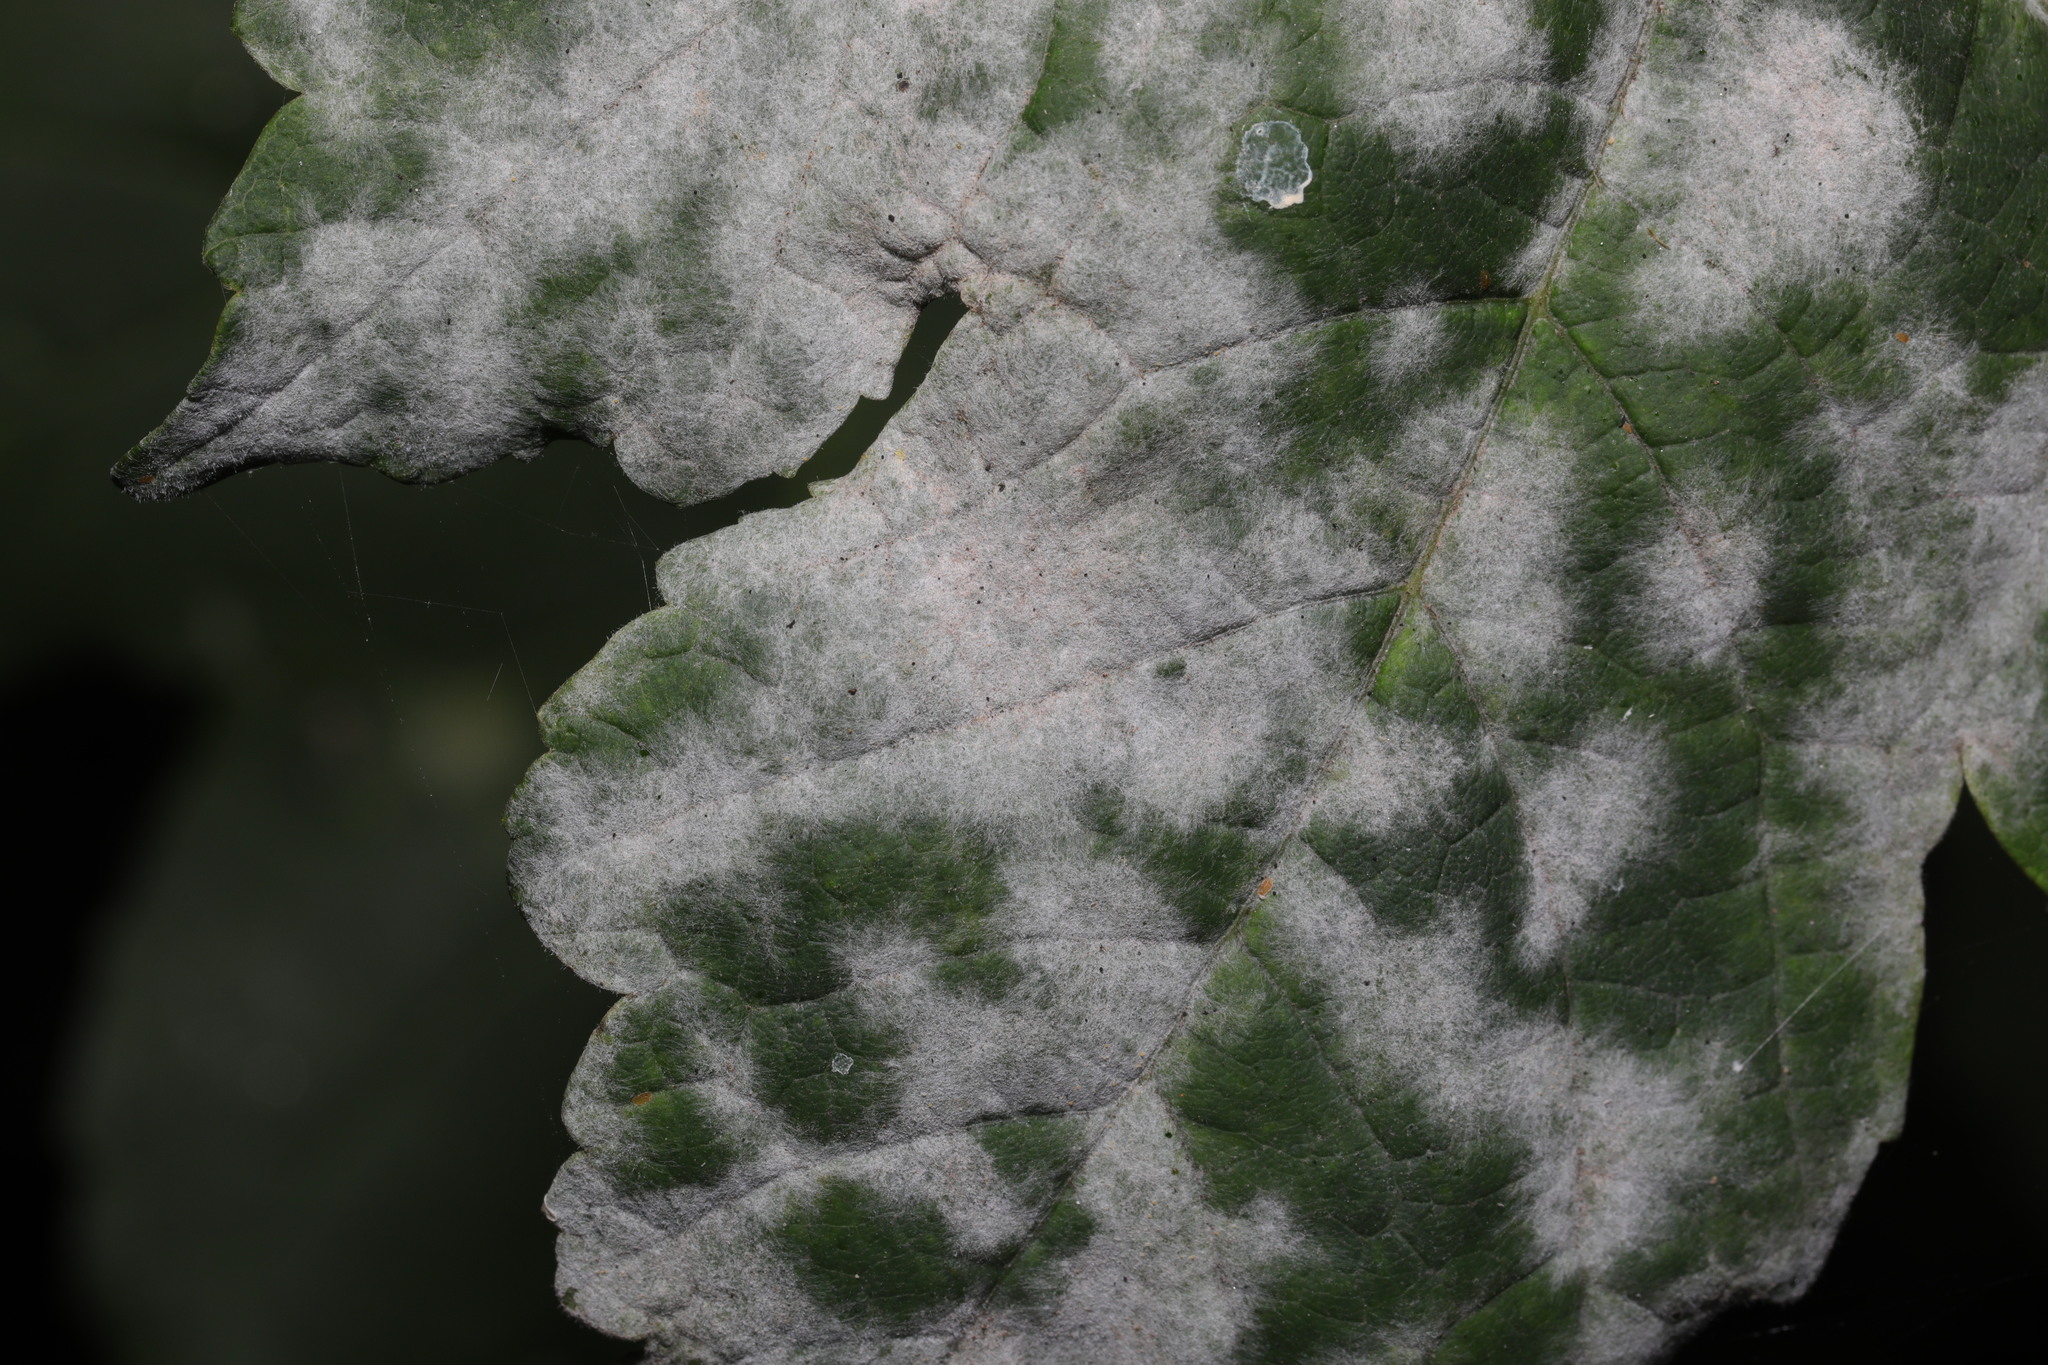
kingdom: Fungi
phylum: Ascomycota
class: Leotiomycetes
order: Helotiales
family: Erysiphaceae
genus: Sawadaea
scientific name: Sawadaea bicornis
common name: Maple mildew
